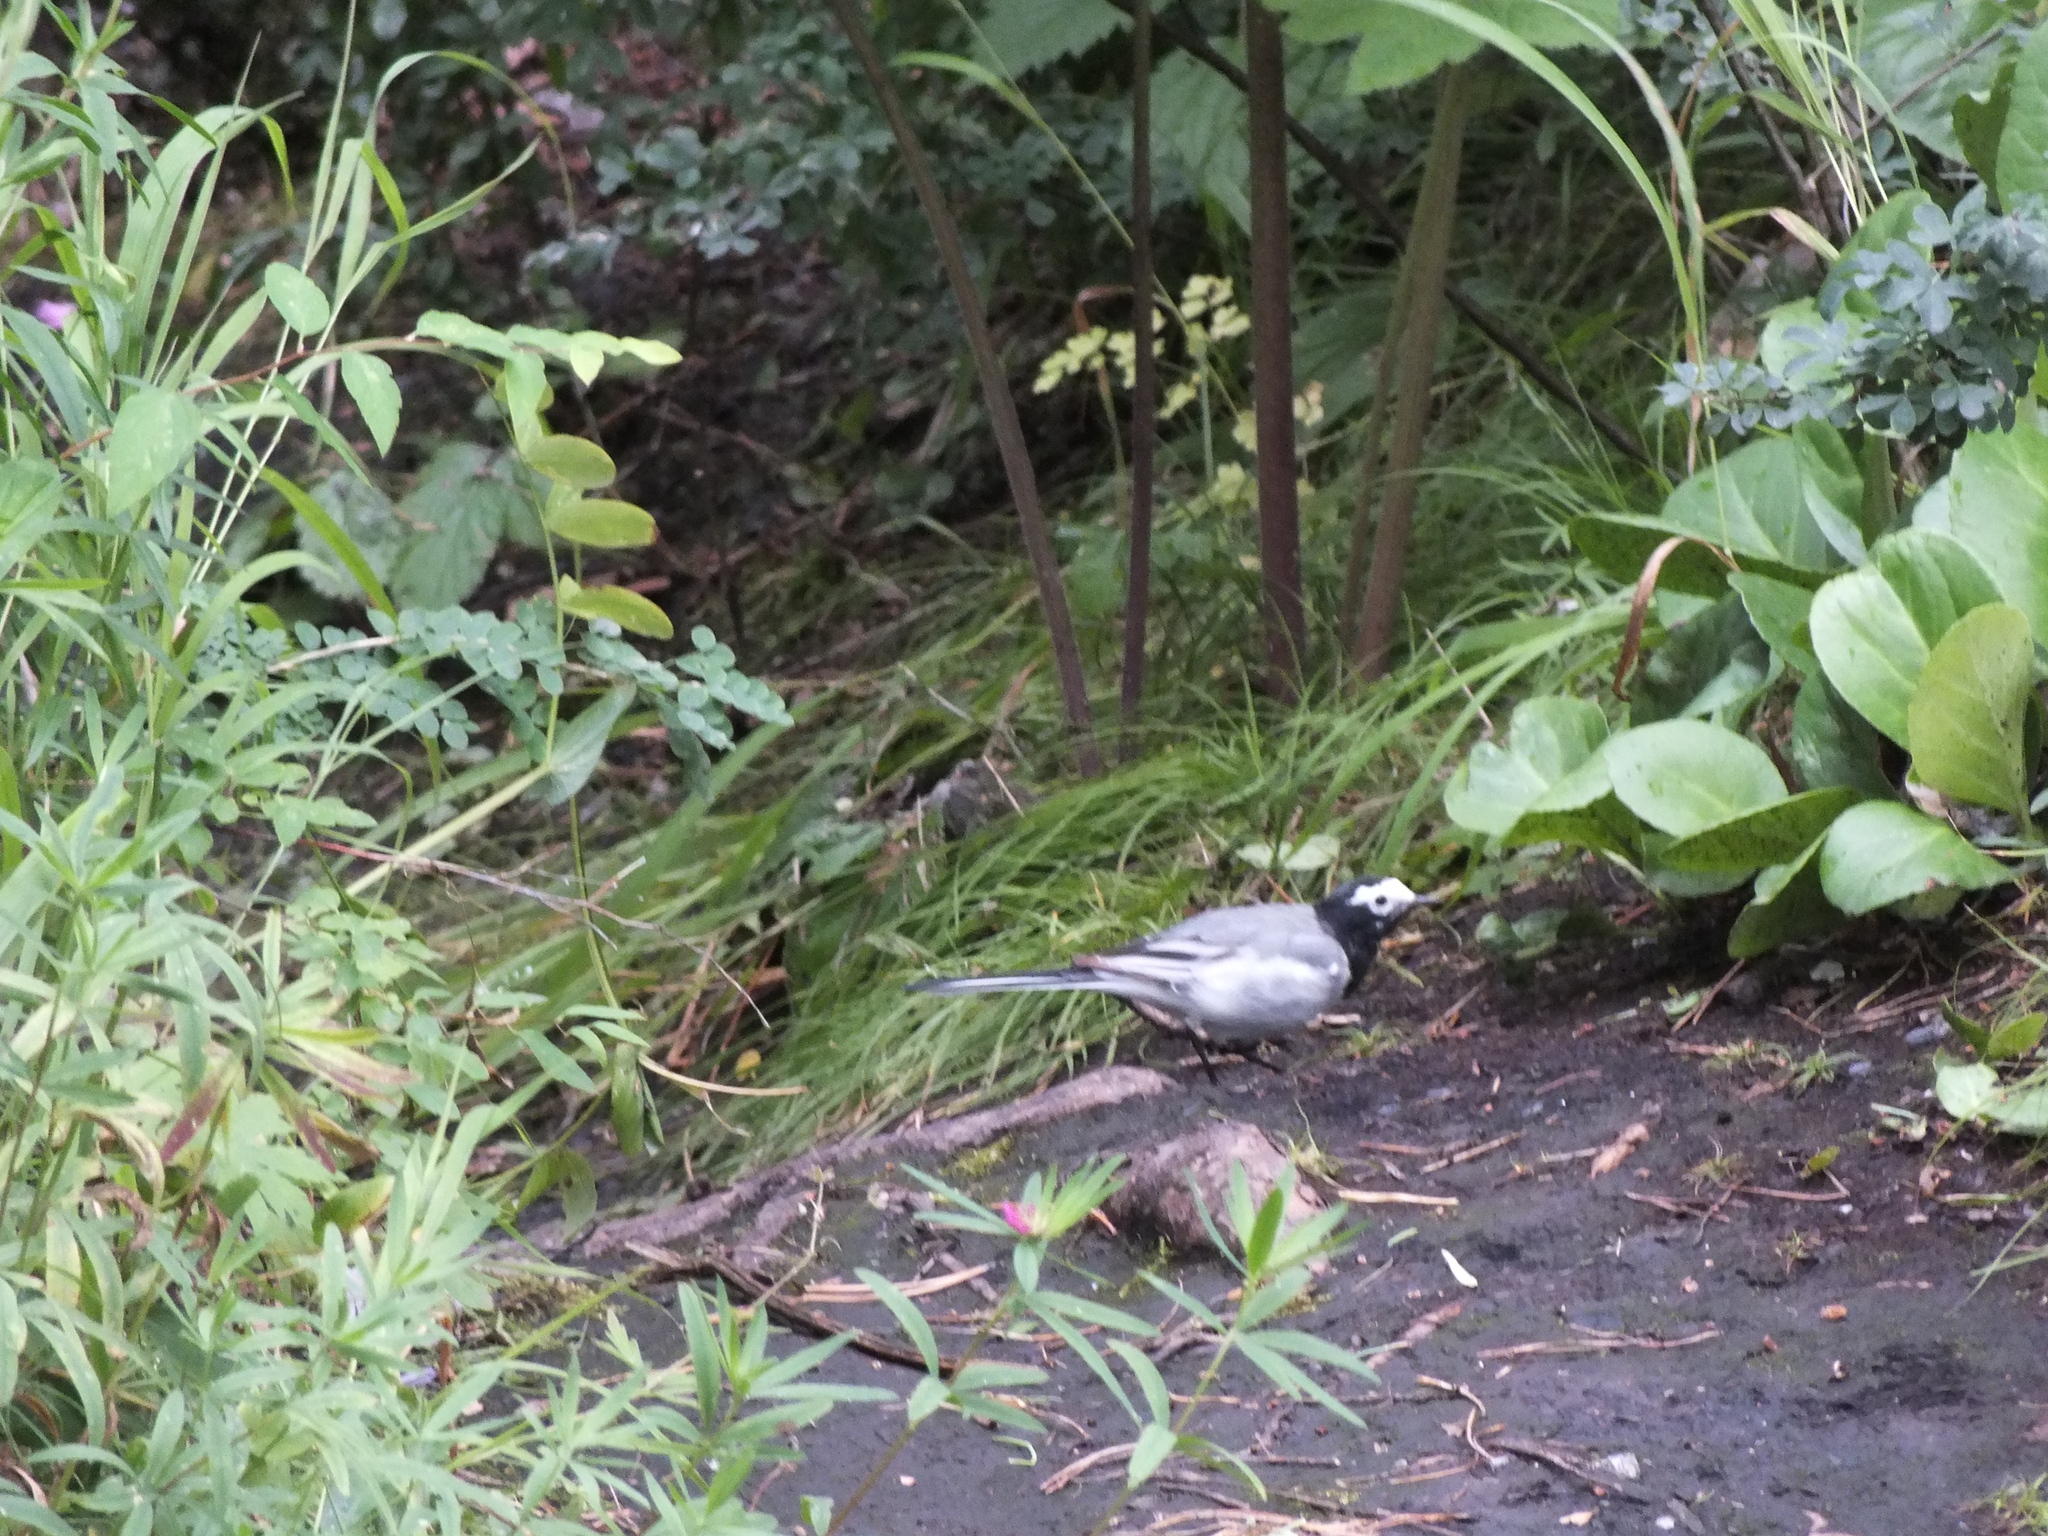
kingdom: Animalia
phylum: Chordata
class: Aves
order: Passeriformes
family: Motacillidae
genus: Motacilla
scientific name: Motacilla alba
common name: White wagtail
